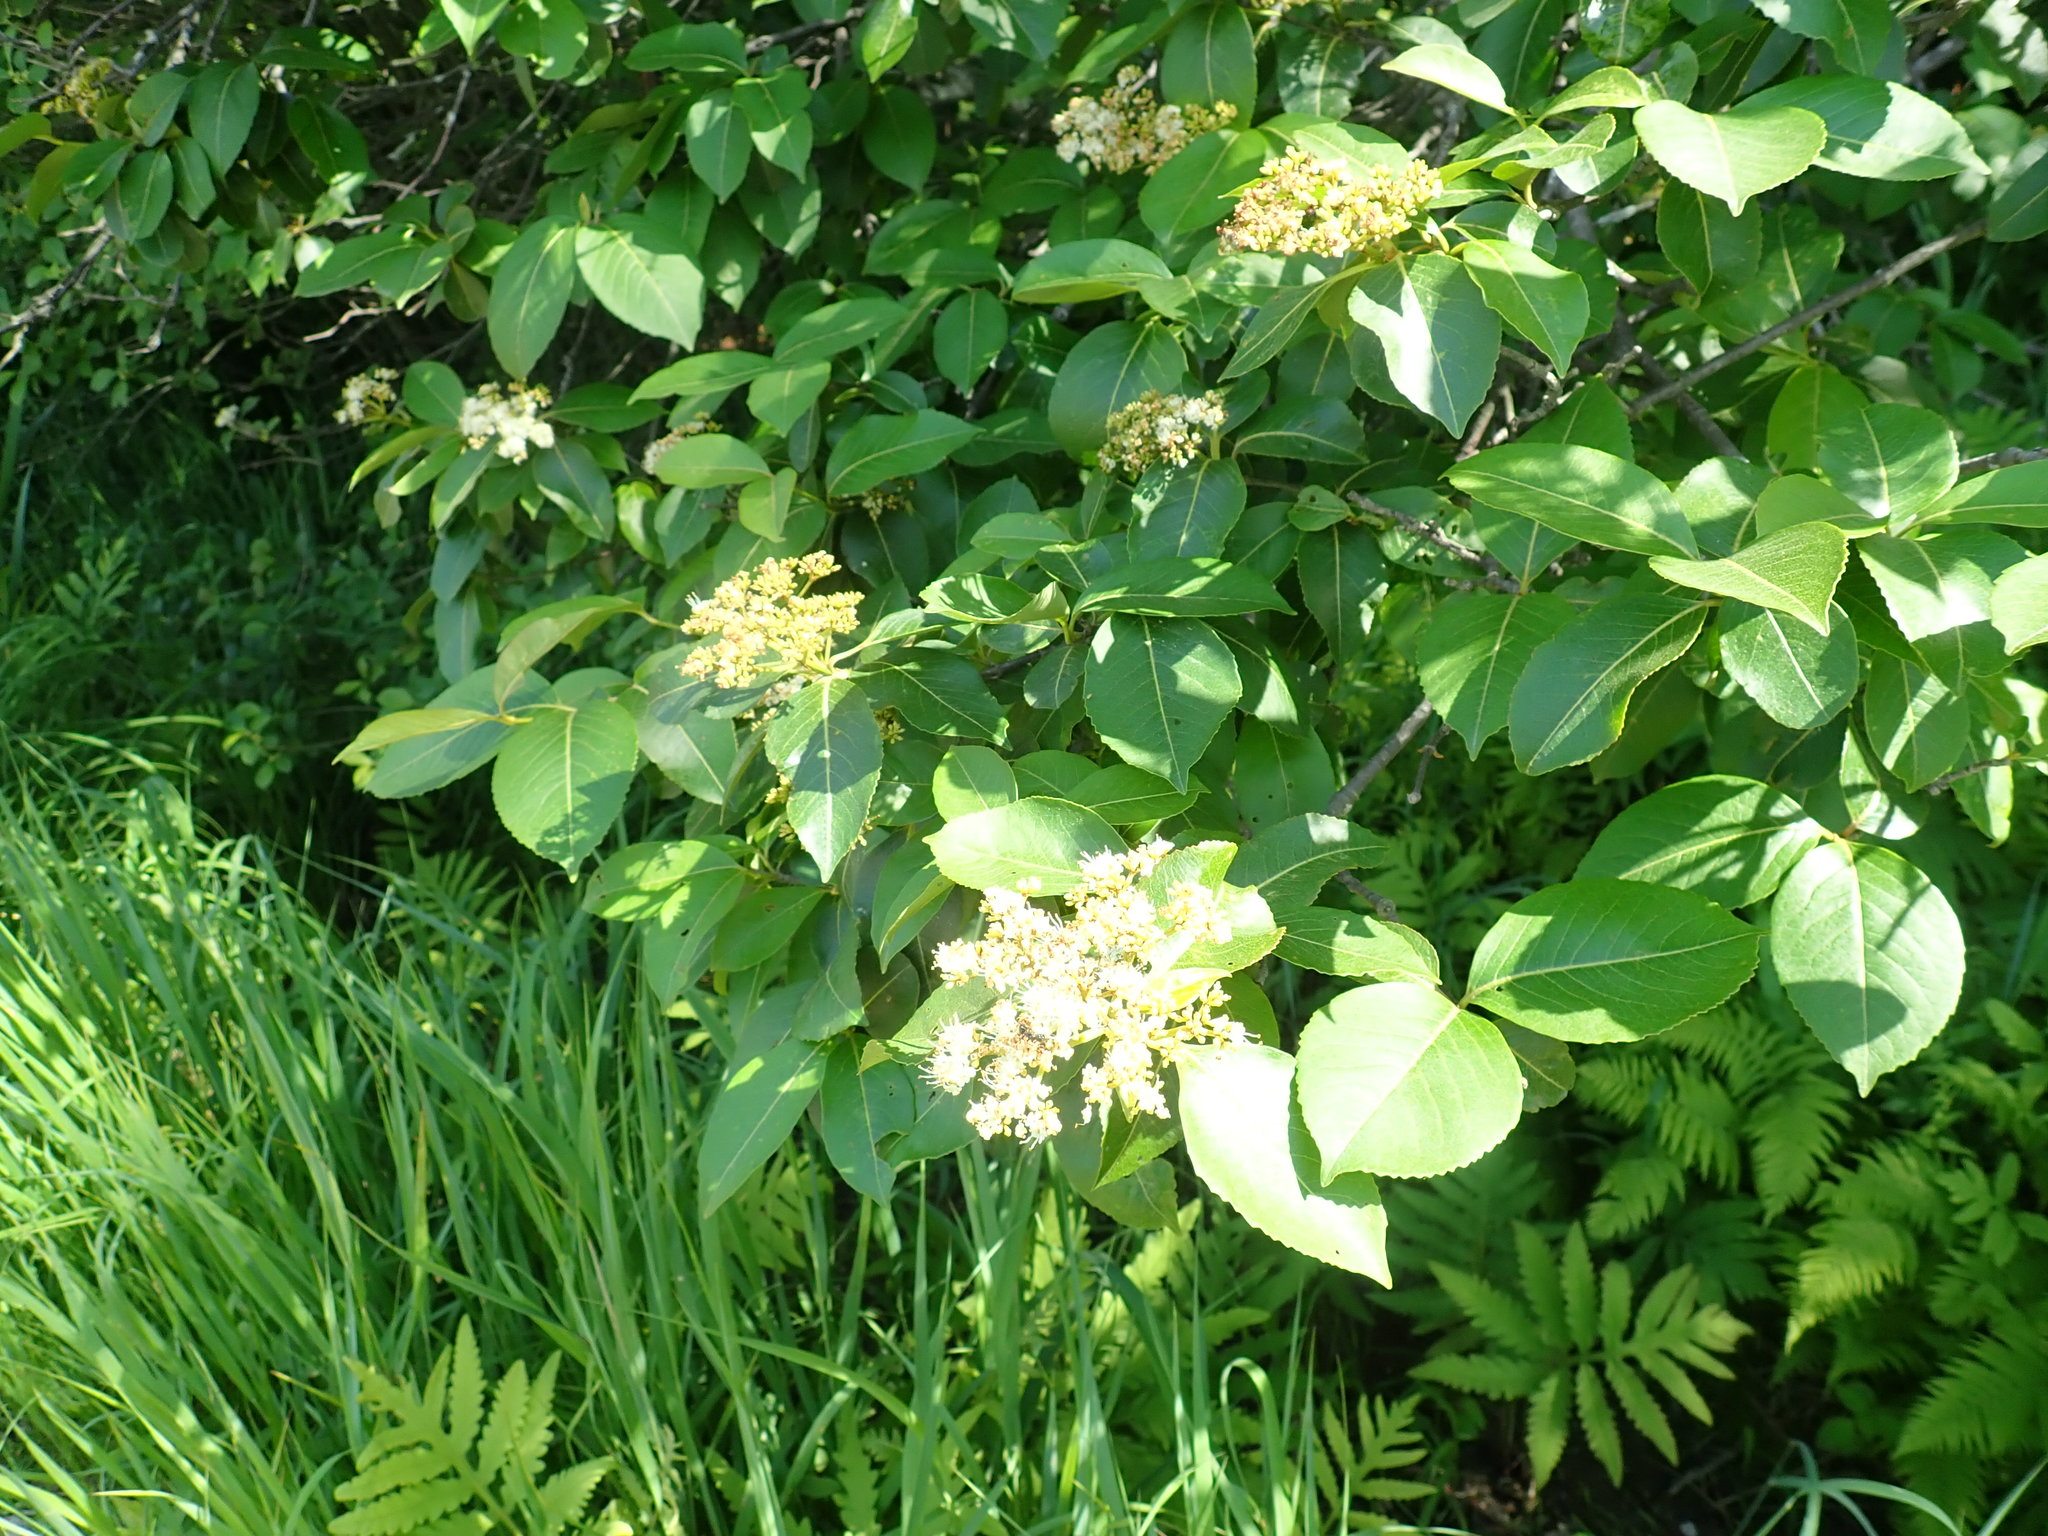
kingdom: Plantae
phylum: Tracheophyta
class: Magnoliopsida
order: Dipsacales
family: Viburnaceae
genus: Viburnum
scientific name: Viburnum cassinoides
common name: Swamp haw
